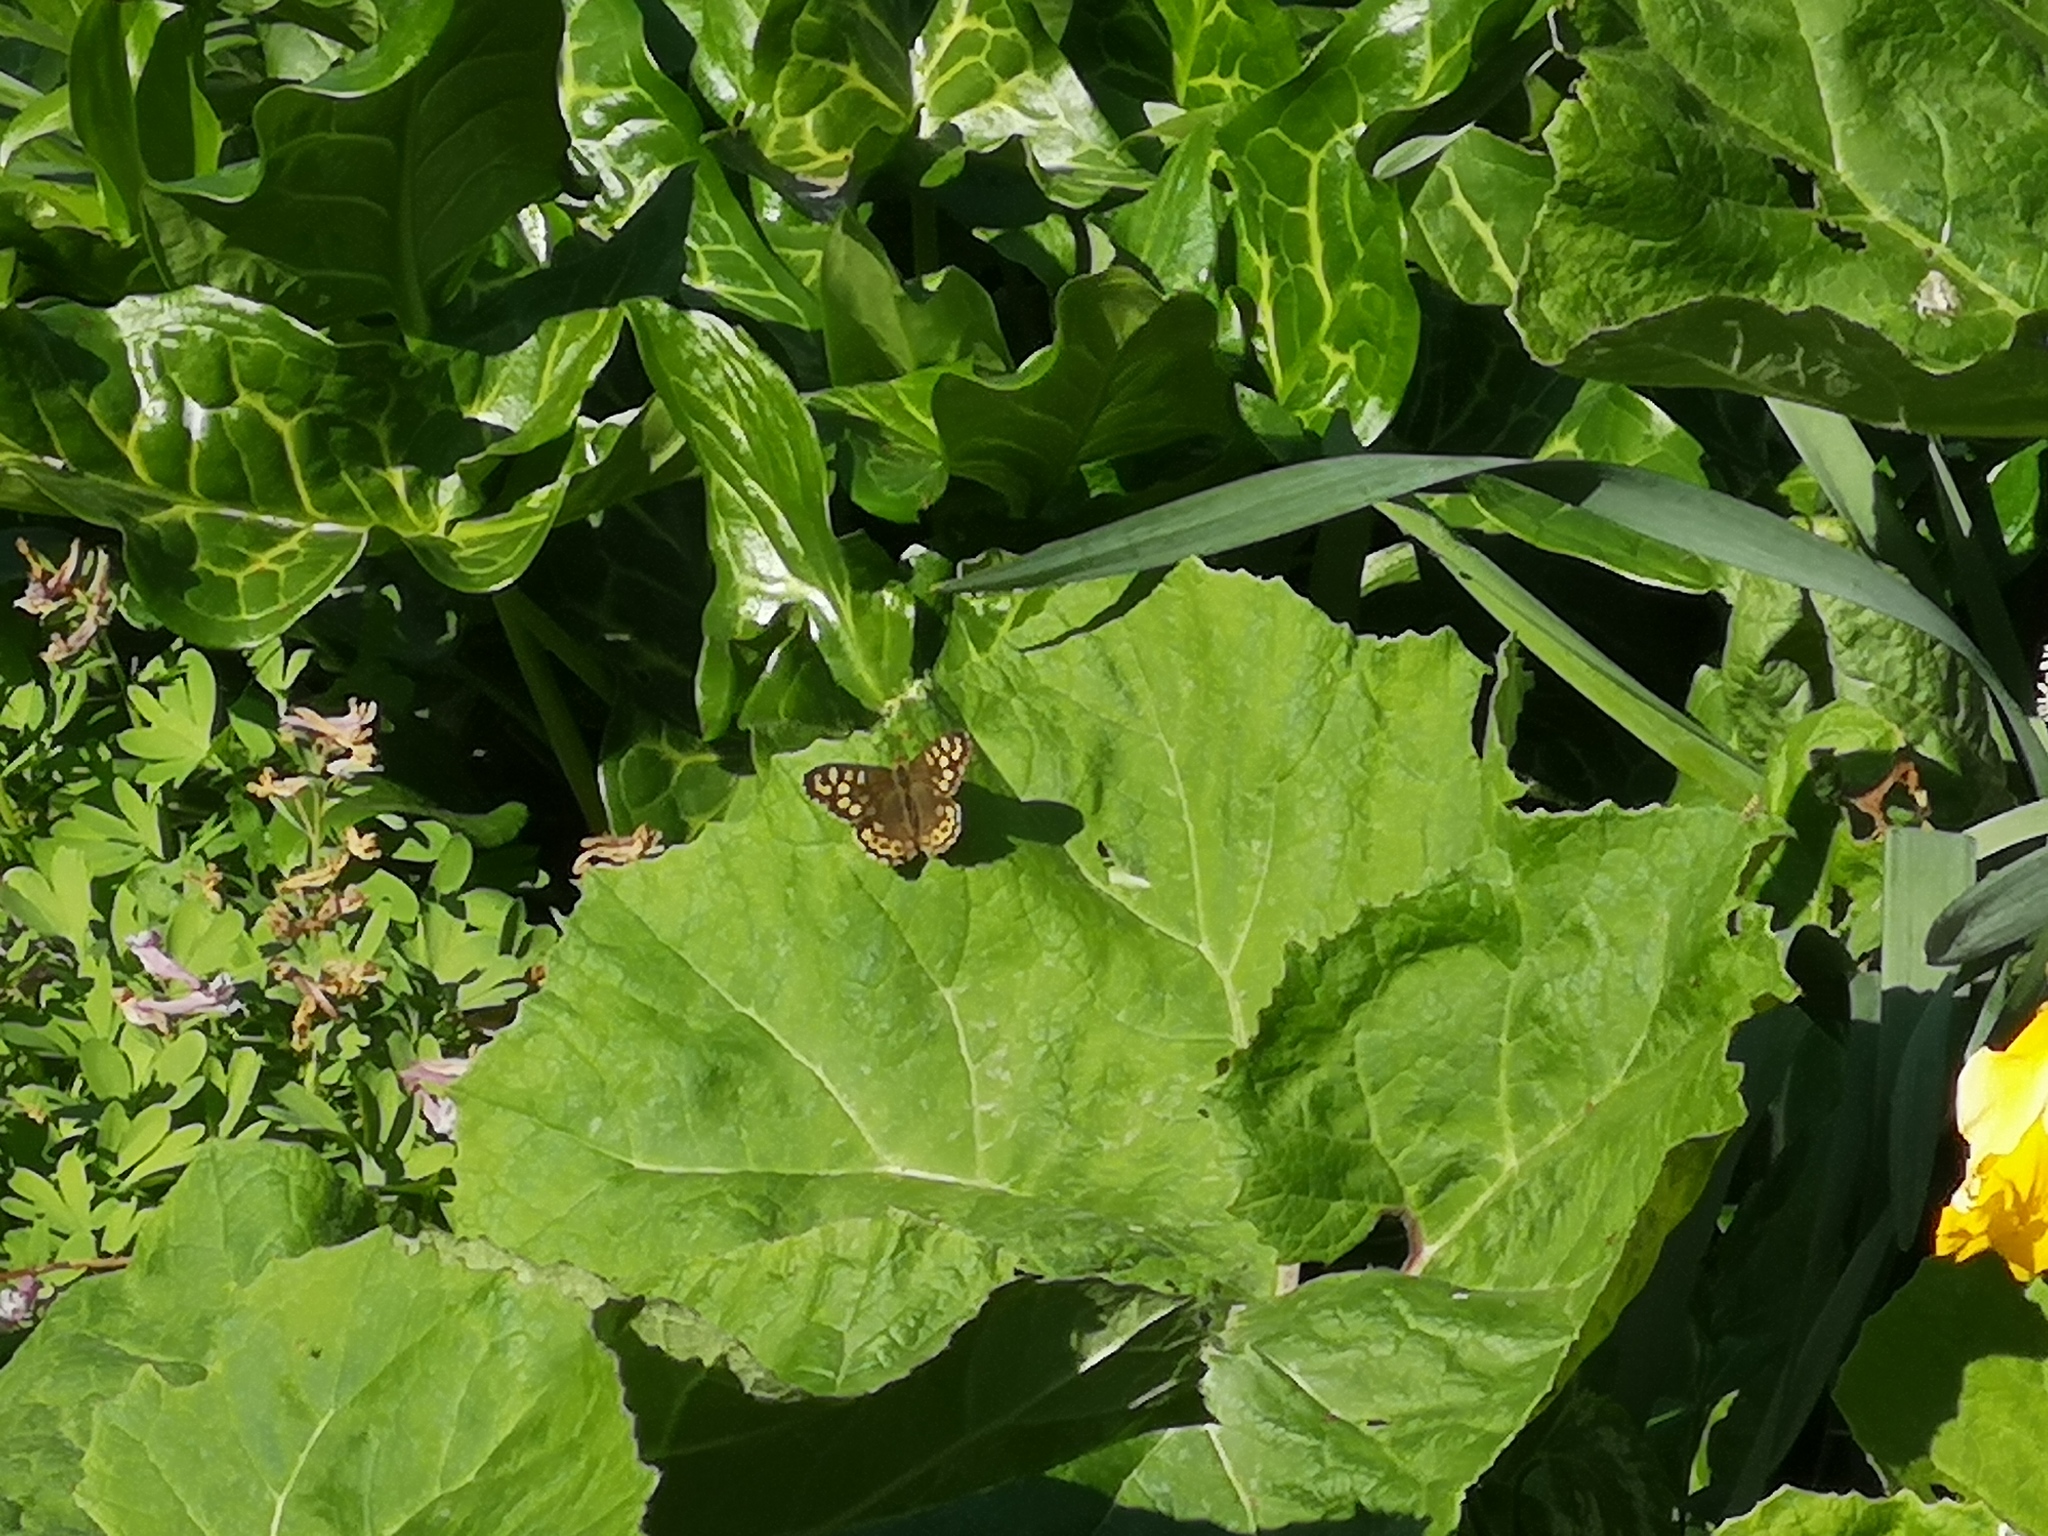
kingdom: Animalia
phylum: Arthropoda
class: Insecta
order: Lepidoptera
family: Nymphalidae
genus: Pararge
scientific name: Pararge aegeria
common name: Speckled wood
